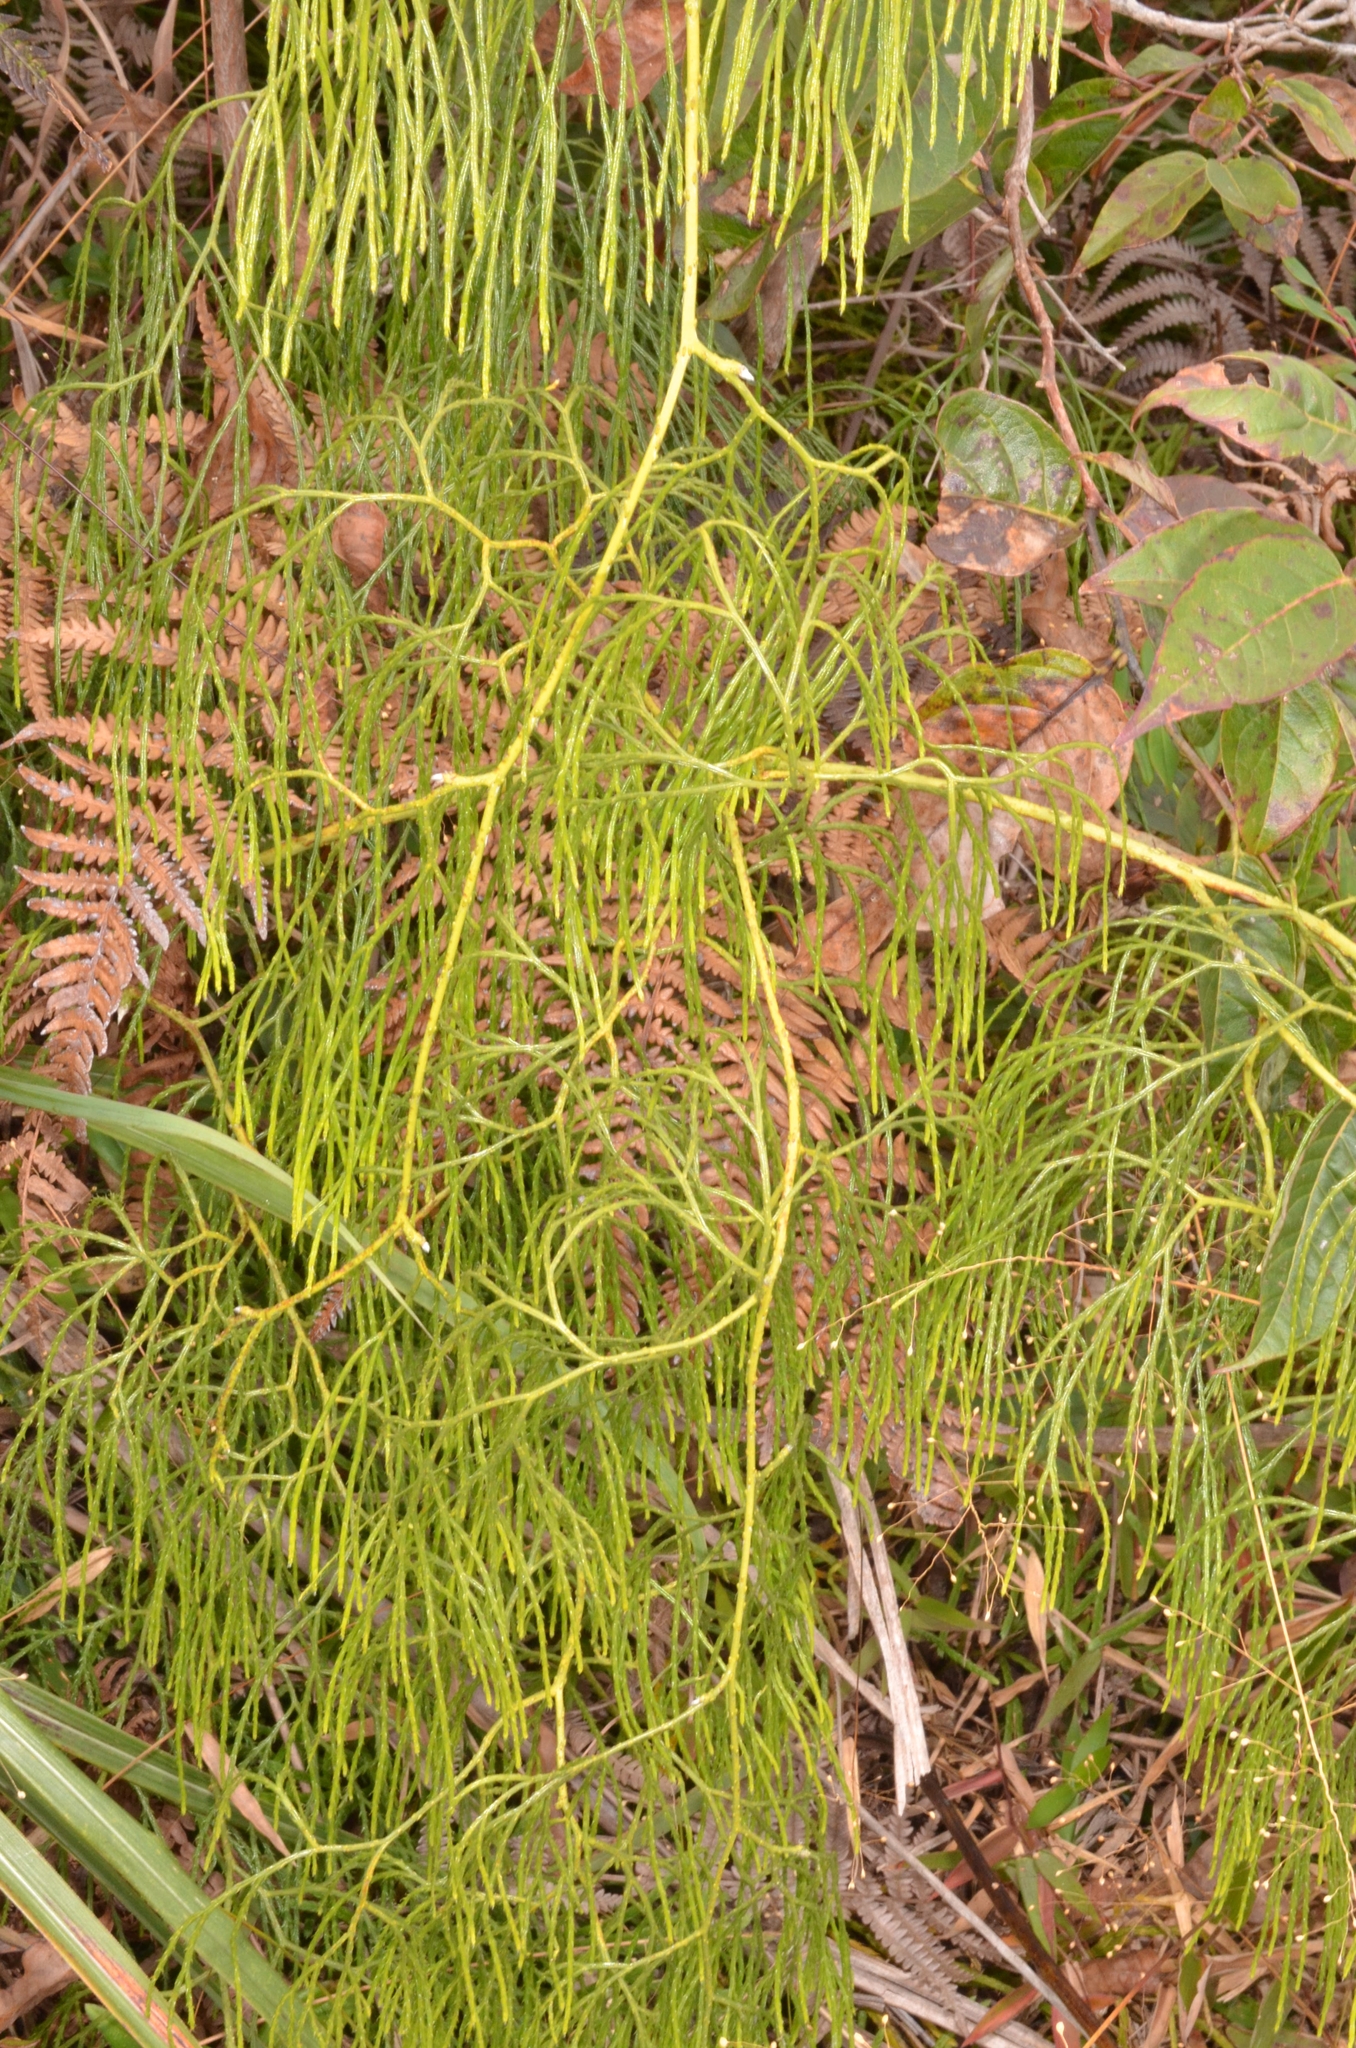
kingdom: Plantae
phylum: Tracheophyta
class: Lycopodiopsida
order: Lycopodiales
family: Lycopodiaceae
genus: Lycopodiastrum
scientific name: Lycopodiastrum casuarinoides
